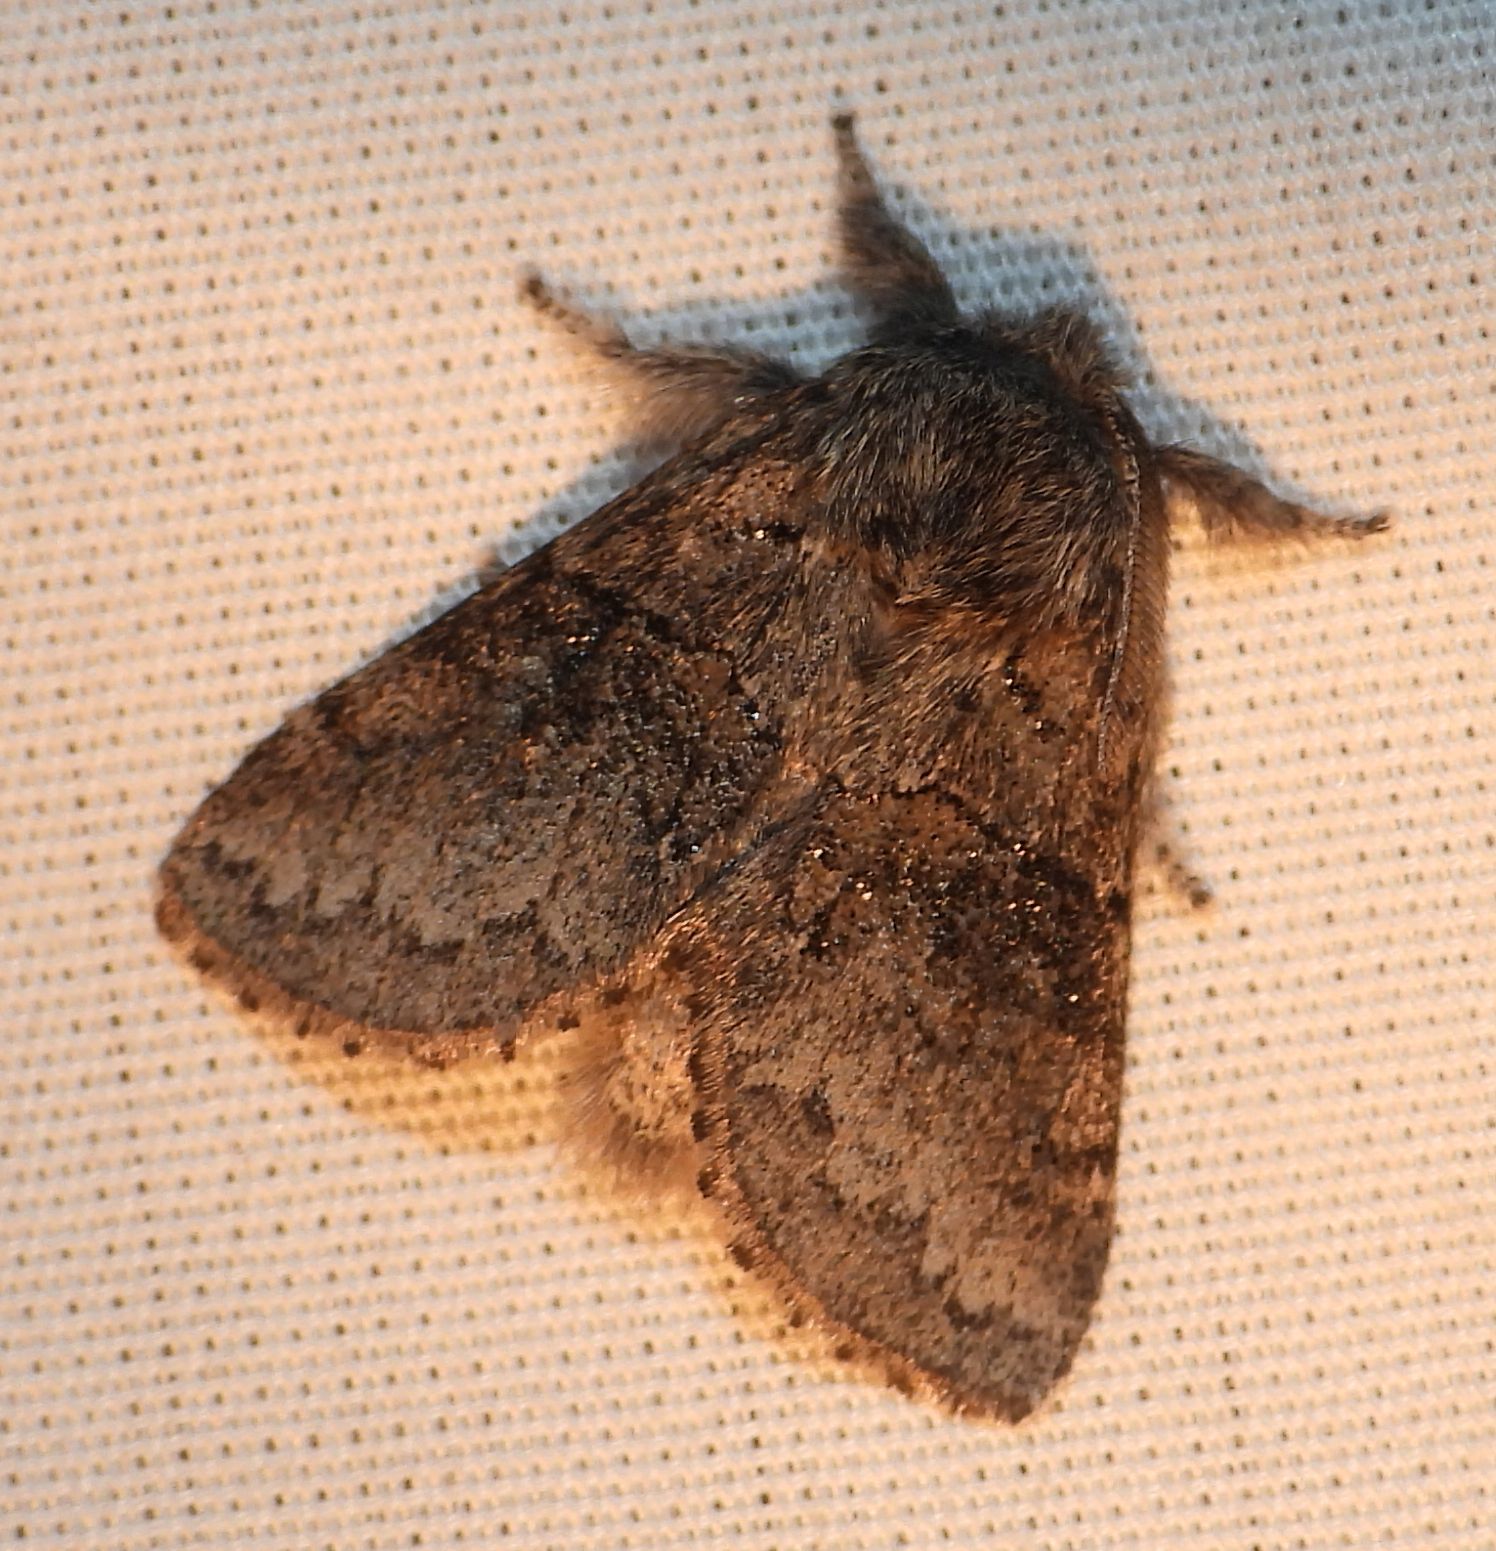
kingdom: Animalia
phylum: Arthropoda
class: Insecta
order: Lepidoptera
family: Notodontidae
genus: Gluphisia
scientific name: Gluphisia septentrionis
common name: Common gluphisia
